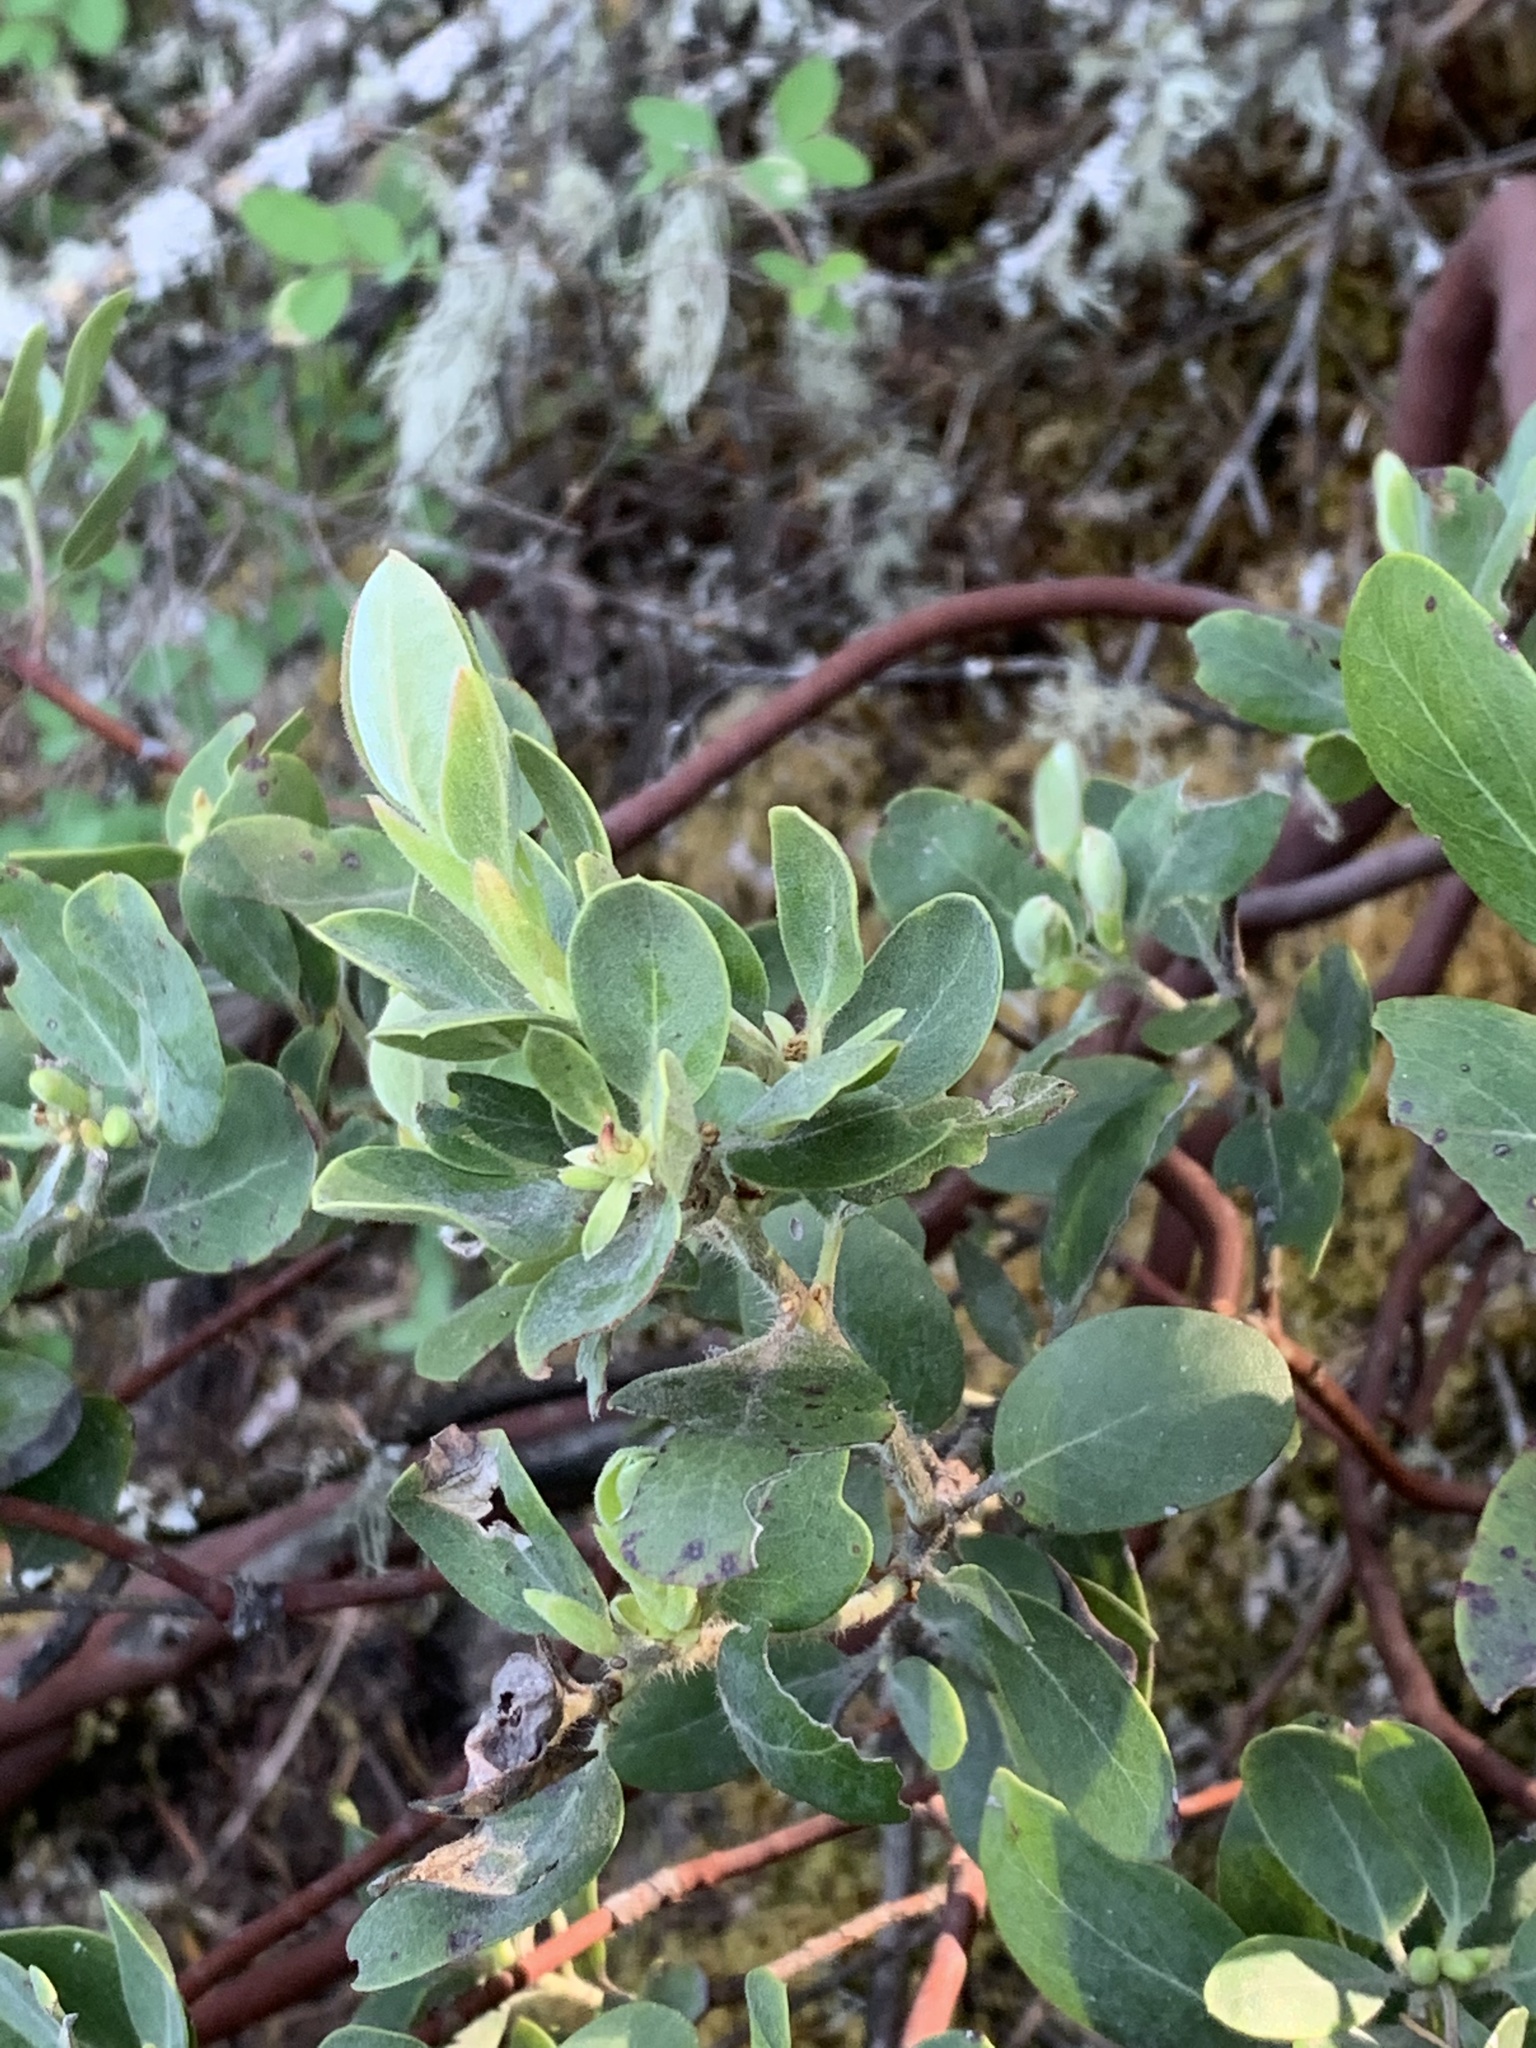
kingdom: Plantae
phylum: Tracheophyta
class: Magnoliopsida
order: Ericales
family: Ericaceae
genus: Arctostaphylos
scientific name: Arctostaphylos columbiana
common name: Bristly bearberry
